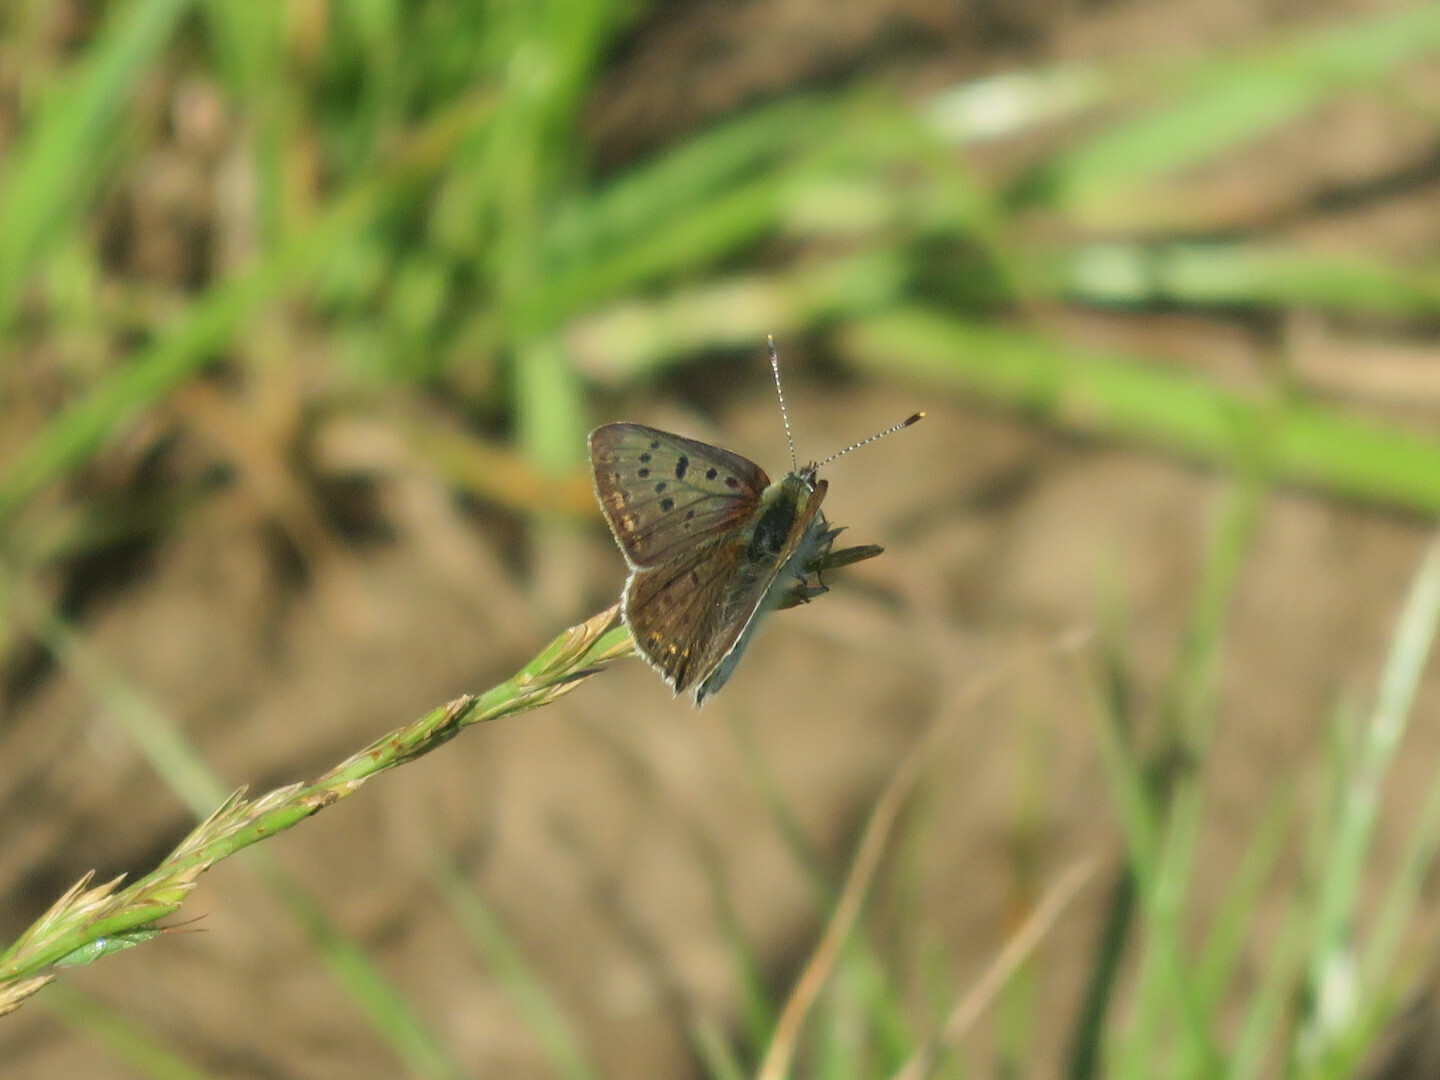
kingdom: Animalia
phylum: Arthropoda
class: Insecta
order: Lepidoptera
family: Lycaenidae
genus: Loweia
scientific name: Loweia tityrus
